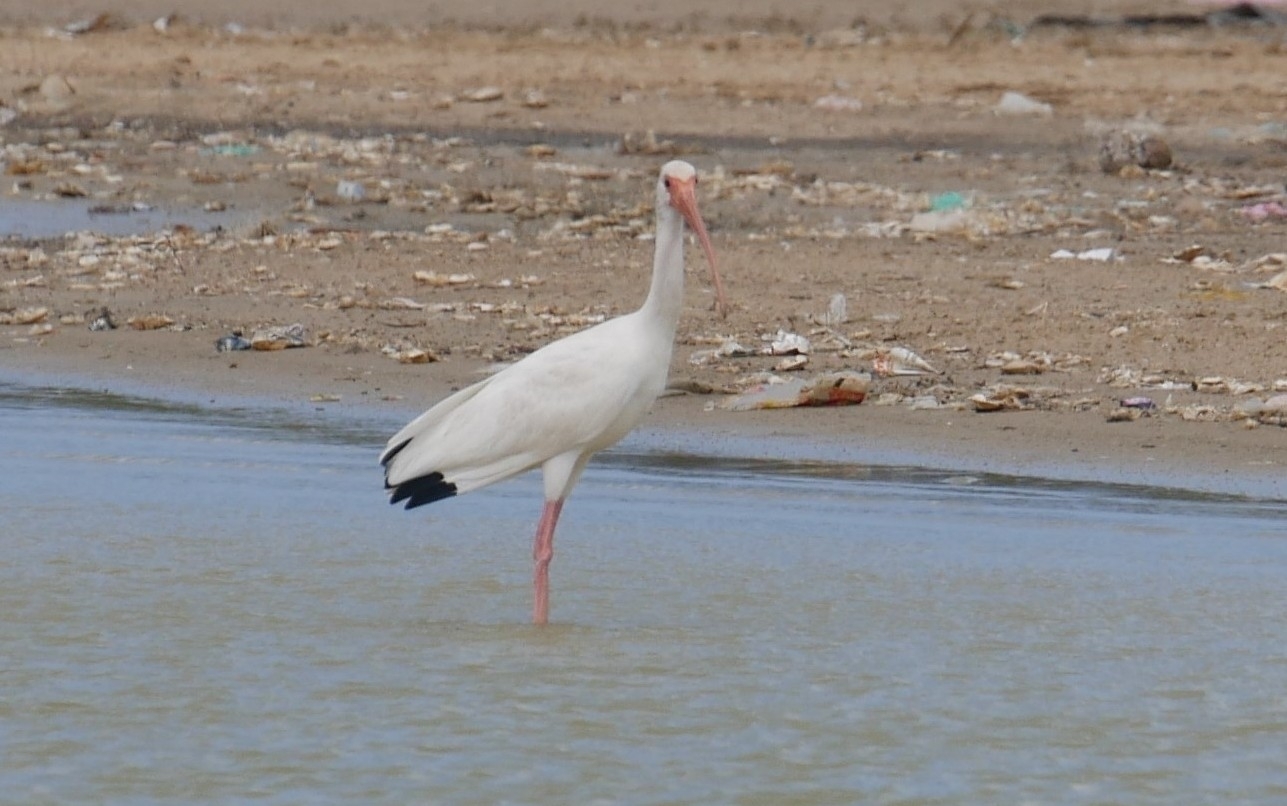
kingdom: Animalia
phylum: Chordata
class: Aves
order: Pelecaniformes
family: Threskiornithidae
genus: Eudocimus
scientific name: Eudocimus albus
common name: White ibis
